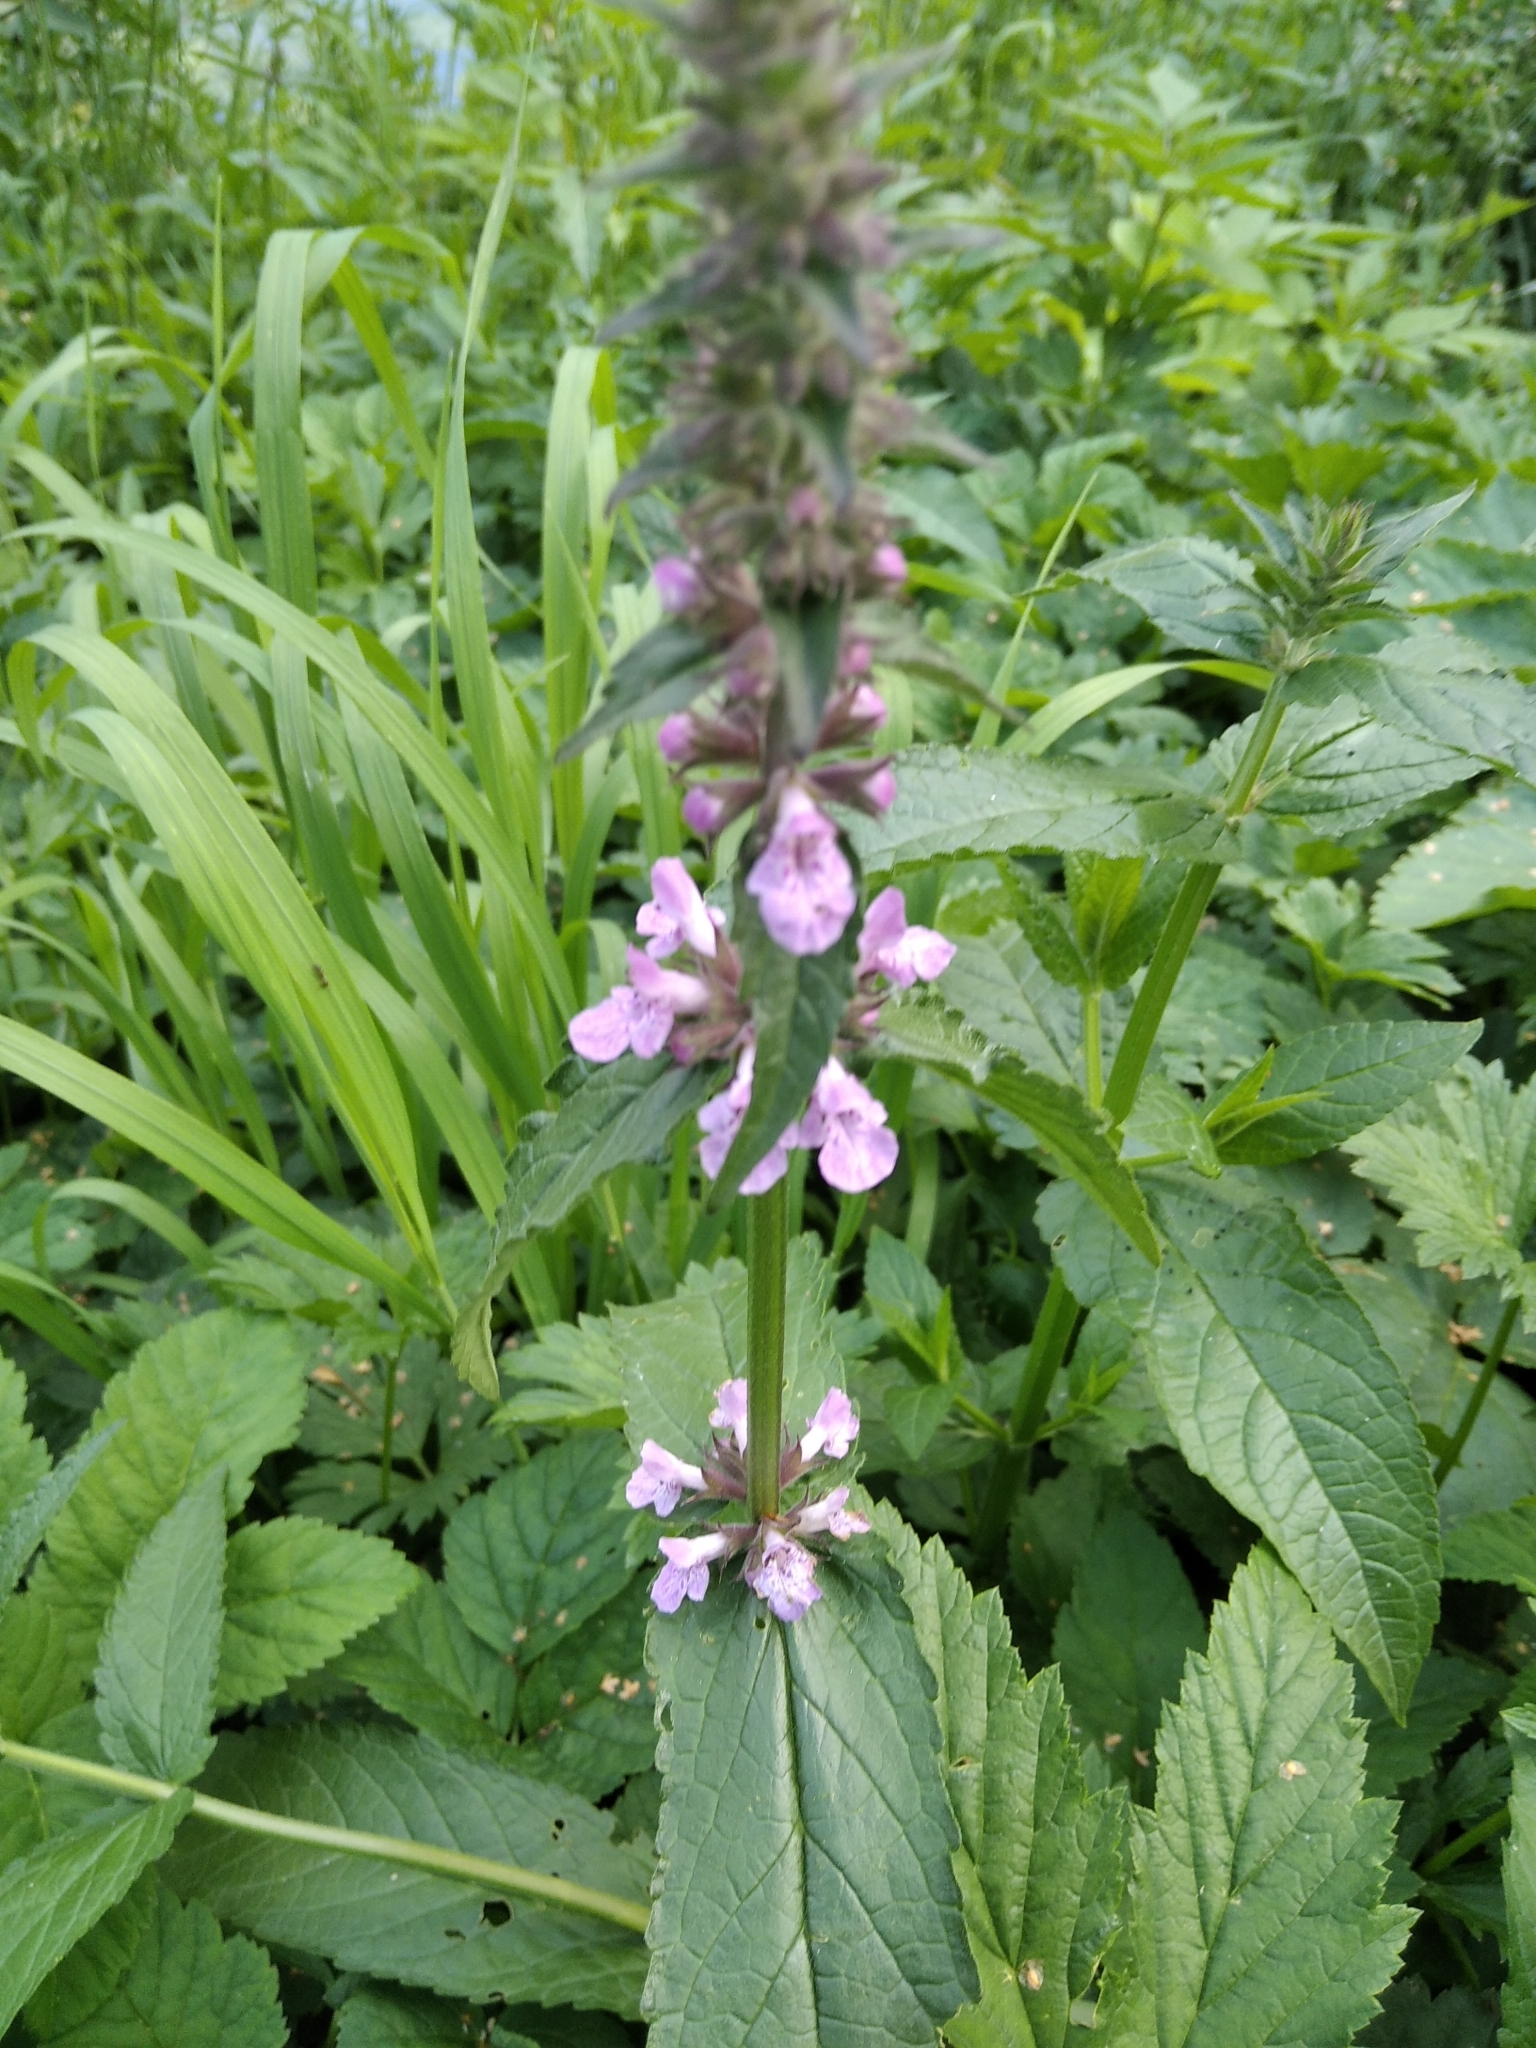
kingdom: Plantae
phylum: Tracheophyta
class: Magnoliopsida
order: Lamiales
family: Lamiaceae
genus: Stachys
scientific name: Stachys palustris
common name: Marsh woundwort
